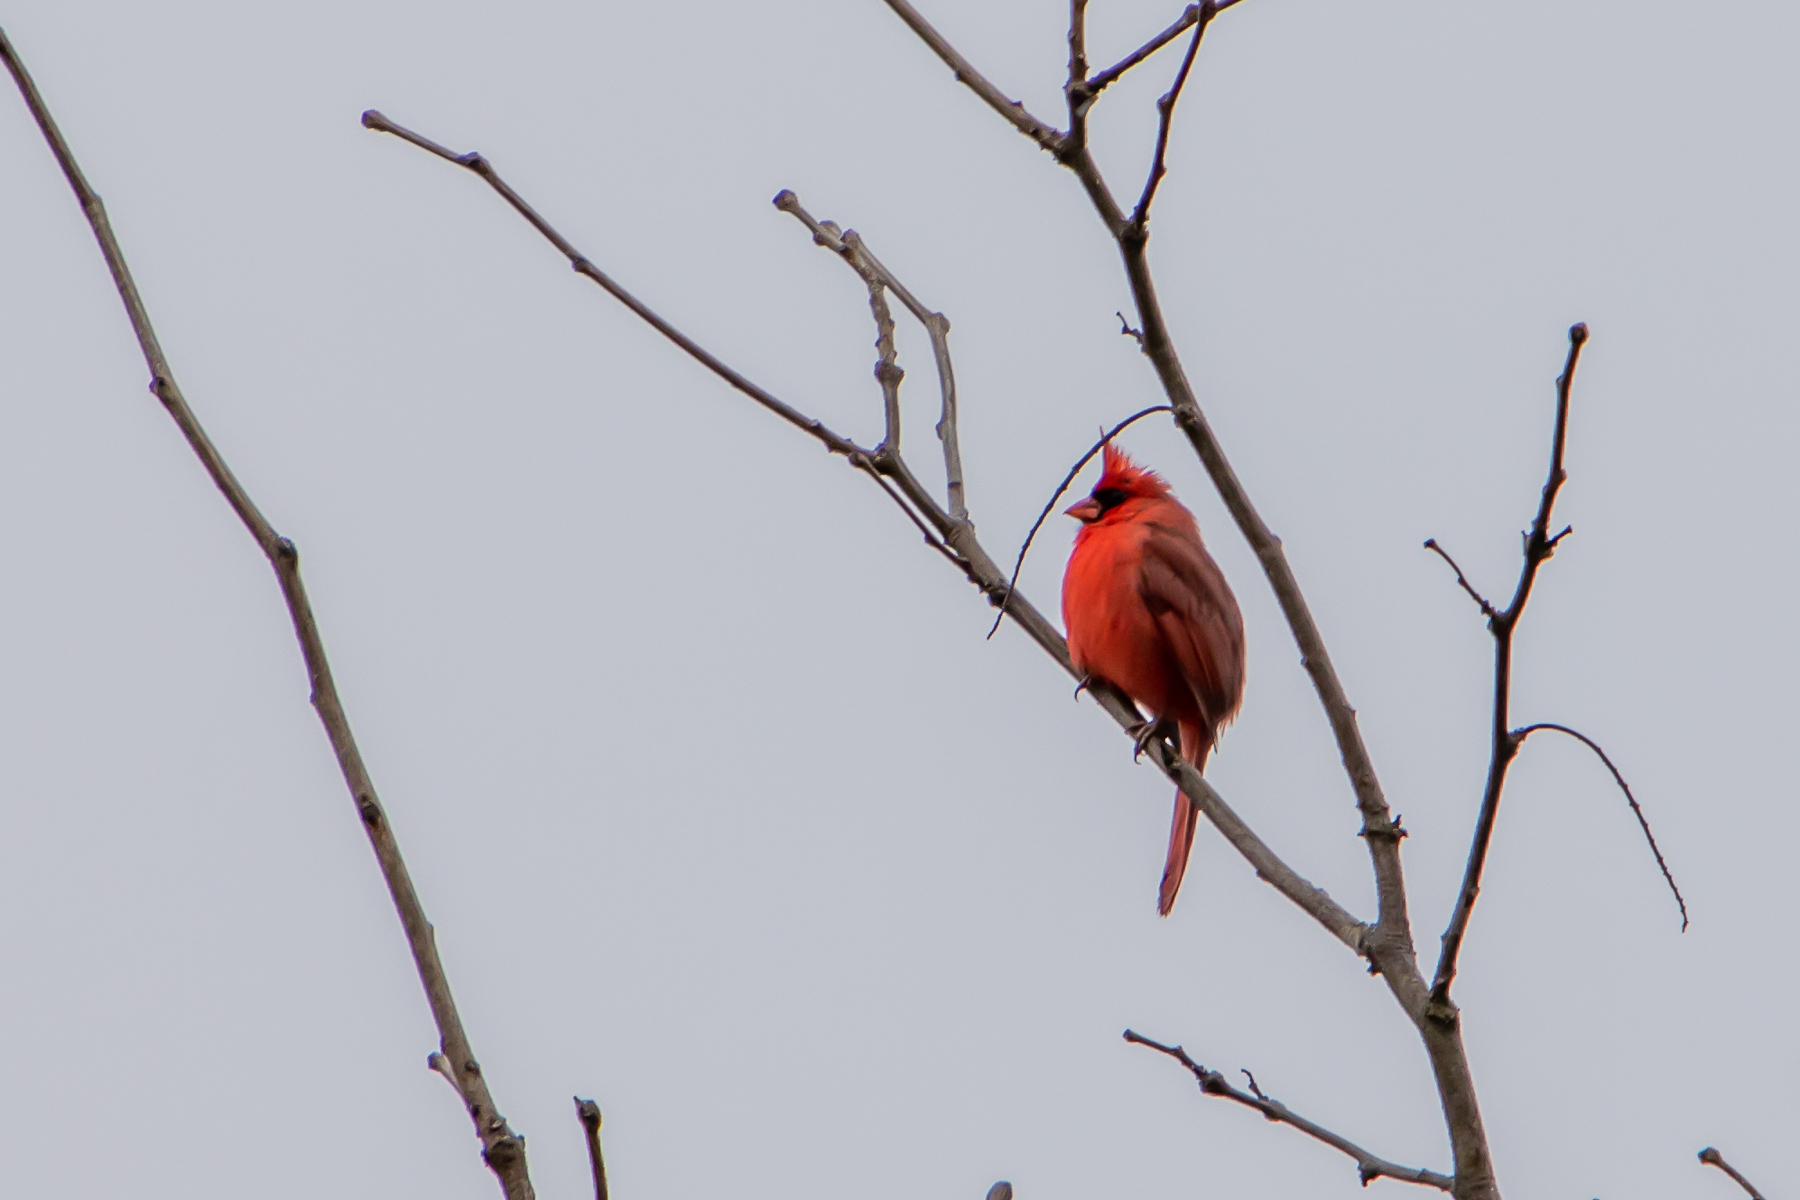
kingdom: Animalia
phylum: Chordata
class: Aves
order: Passeriformes
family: Cardinalidae
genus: Cardinalis
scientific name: Cardinalis cardinalis
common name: Northern cardinal
